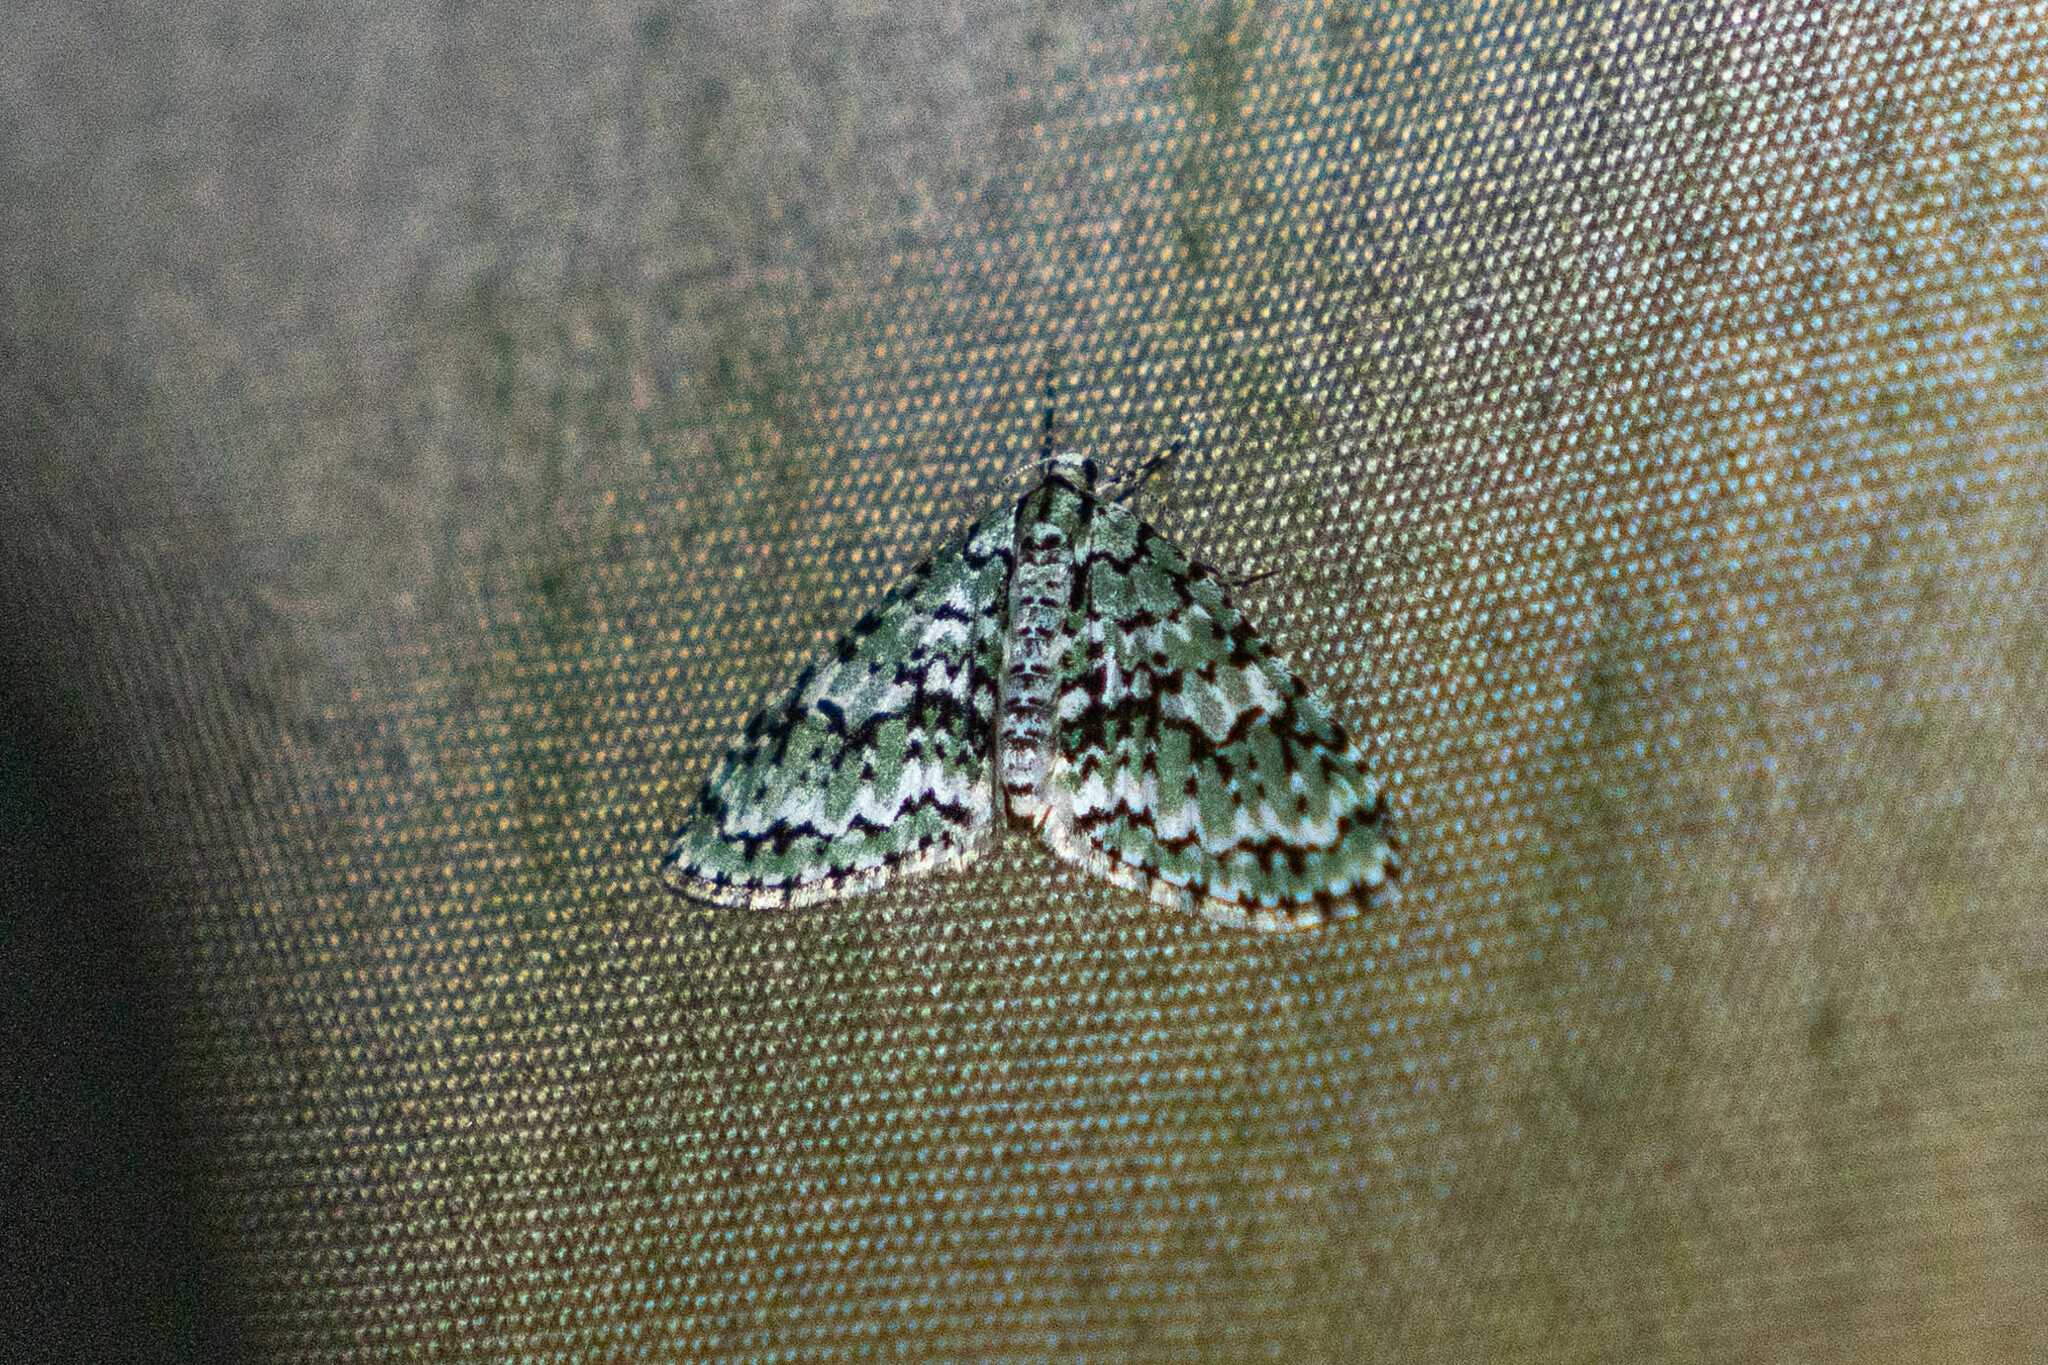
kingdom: Animalia
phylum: Arthropoda
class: Insecta
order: Lepidoptera
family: Geometridae
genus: Cladara
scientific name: Cladara atroliturata
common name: Scribbler
